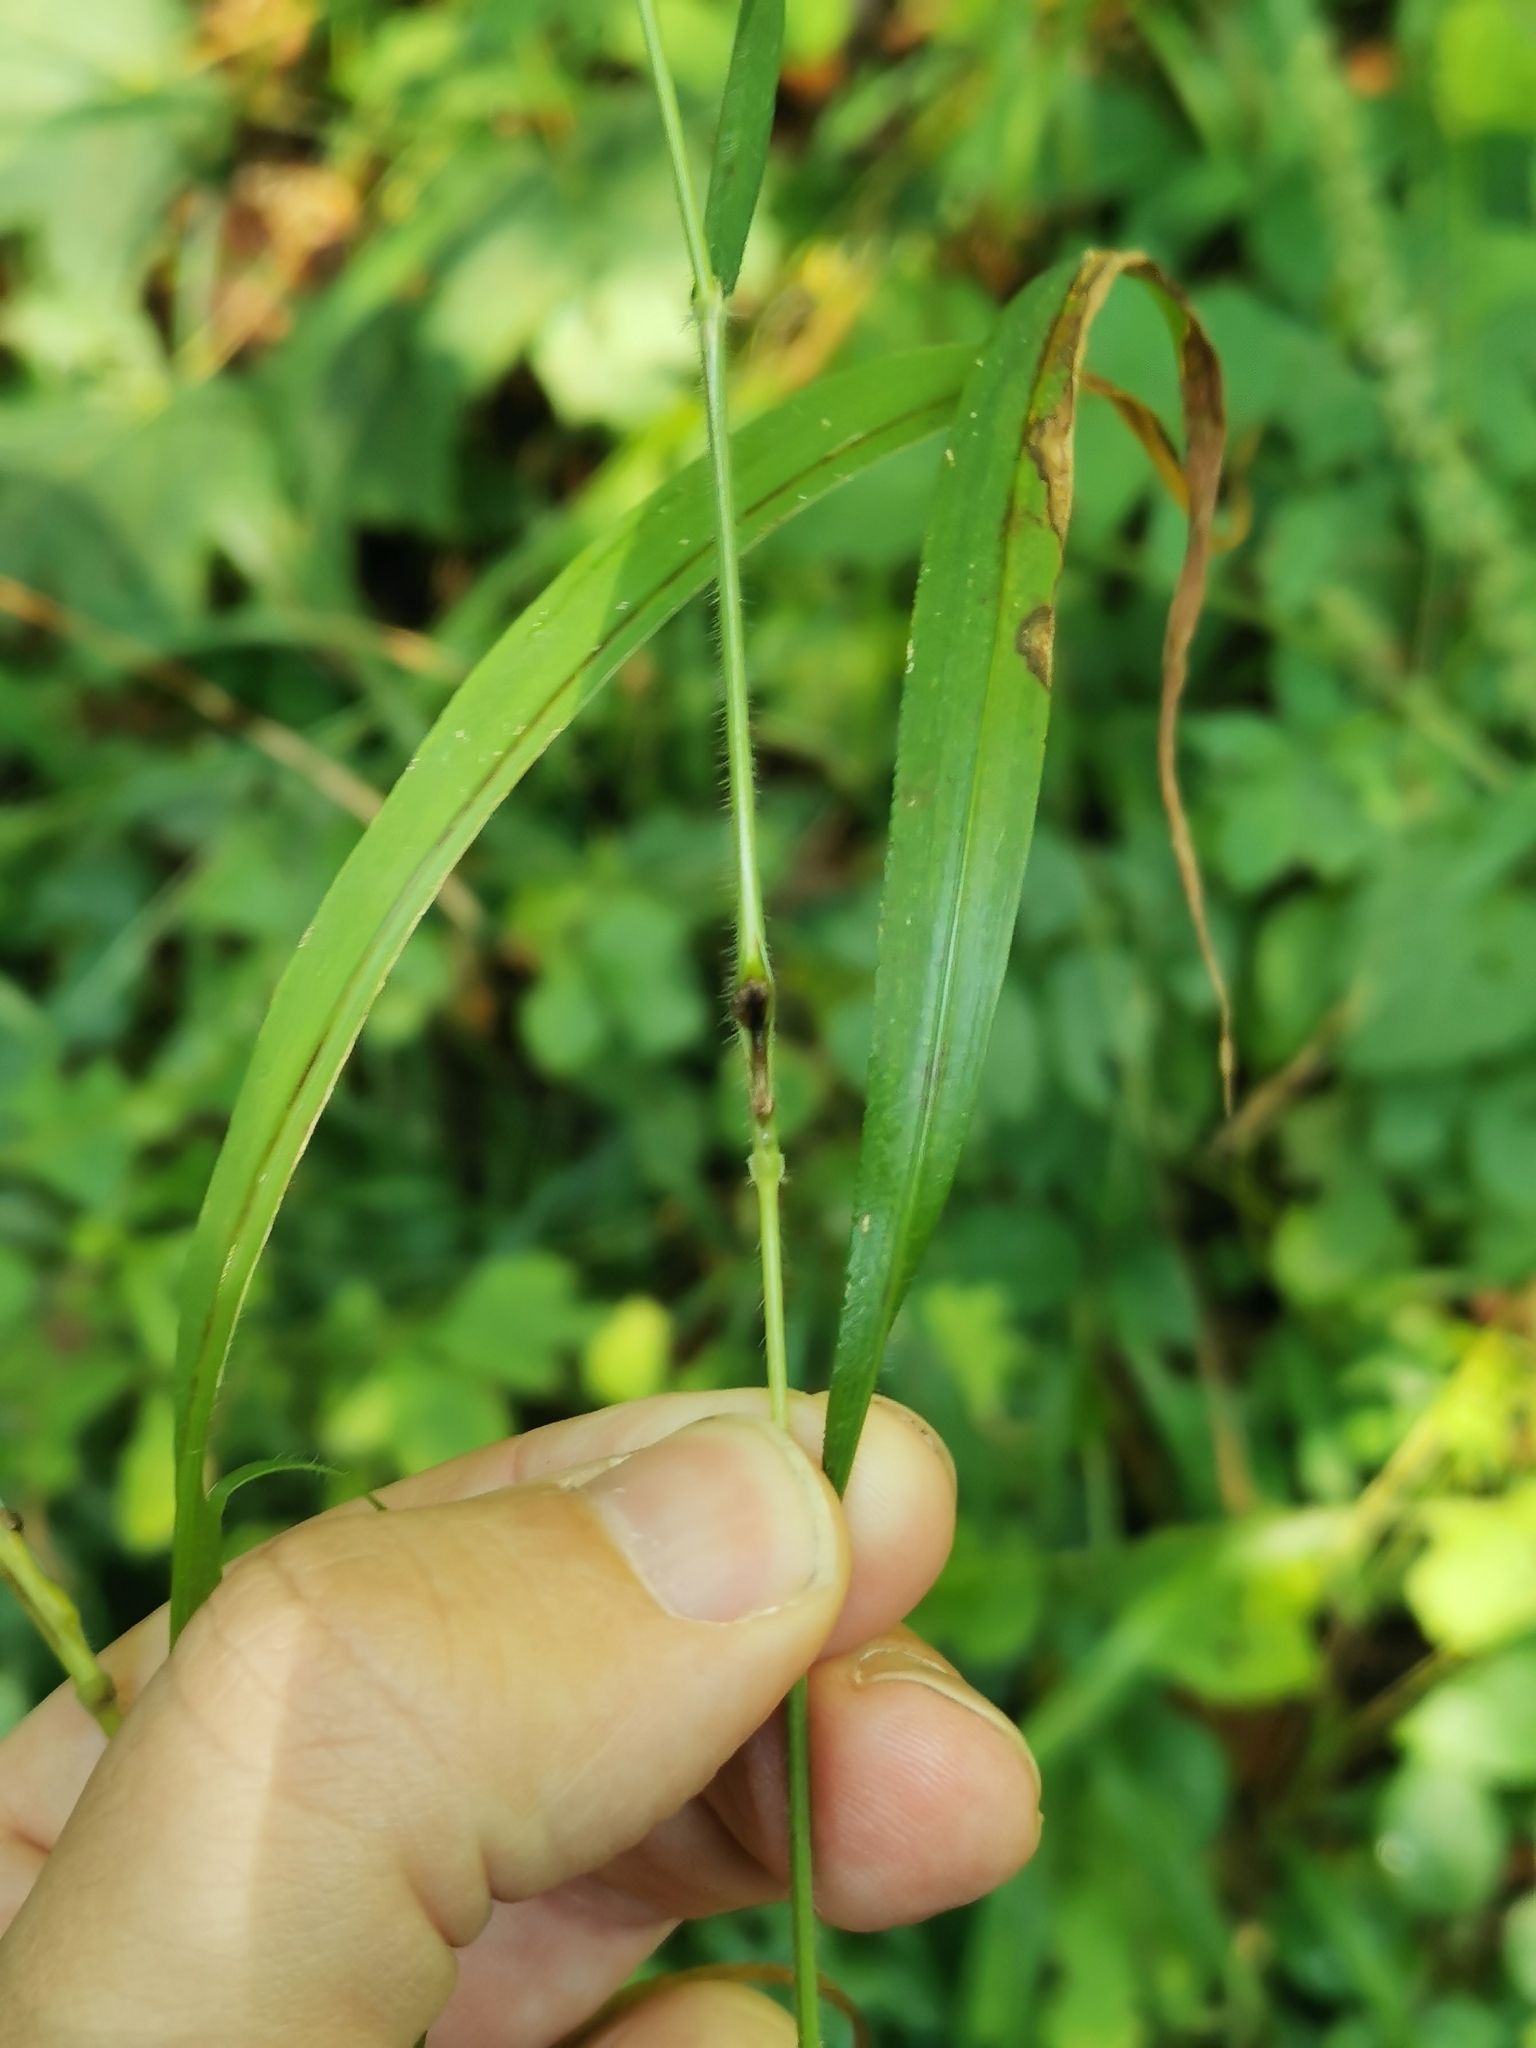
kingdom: Animalia
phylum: Arthropoda
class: Insecta
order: Diptera
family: Cecidomyiidae
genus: Mayetiola
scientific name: Mayetiola hellwigi
